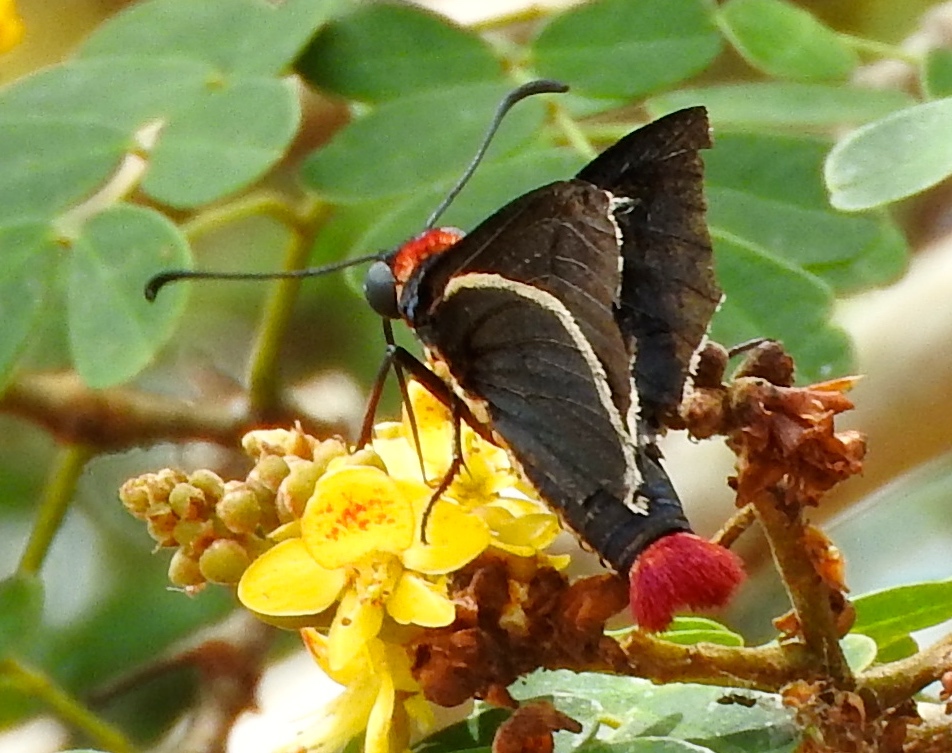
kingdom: Animalia
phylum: Arthropoda
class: Insecta
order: Lepidoptera
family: Hesperiidae
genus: Mysoria
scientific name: Mysoria affinis
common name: Red-collared firetip
